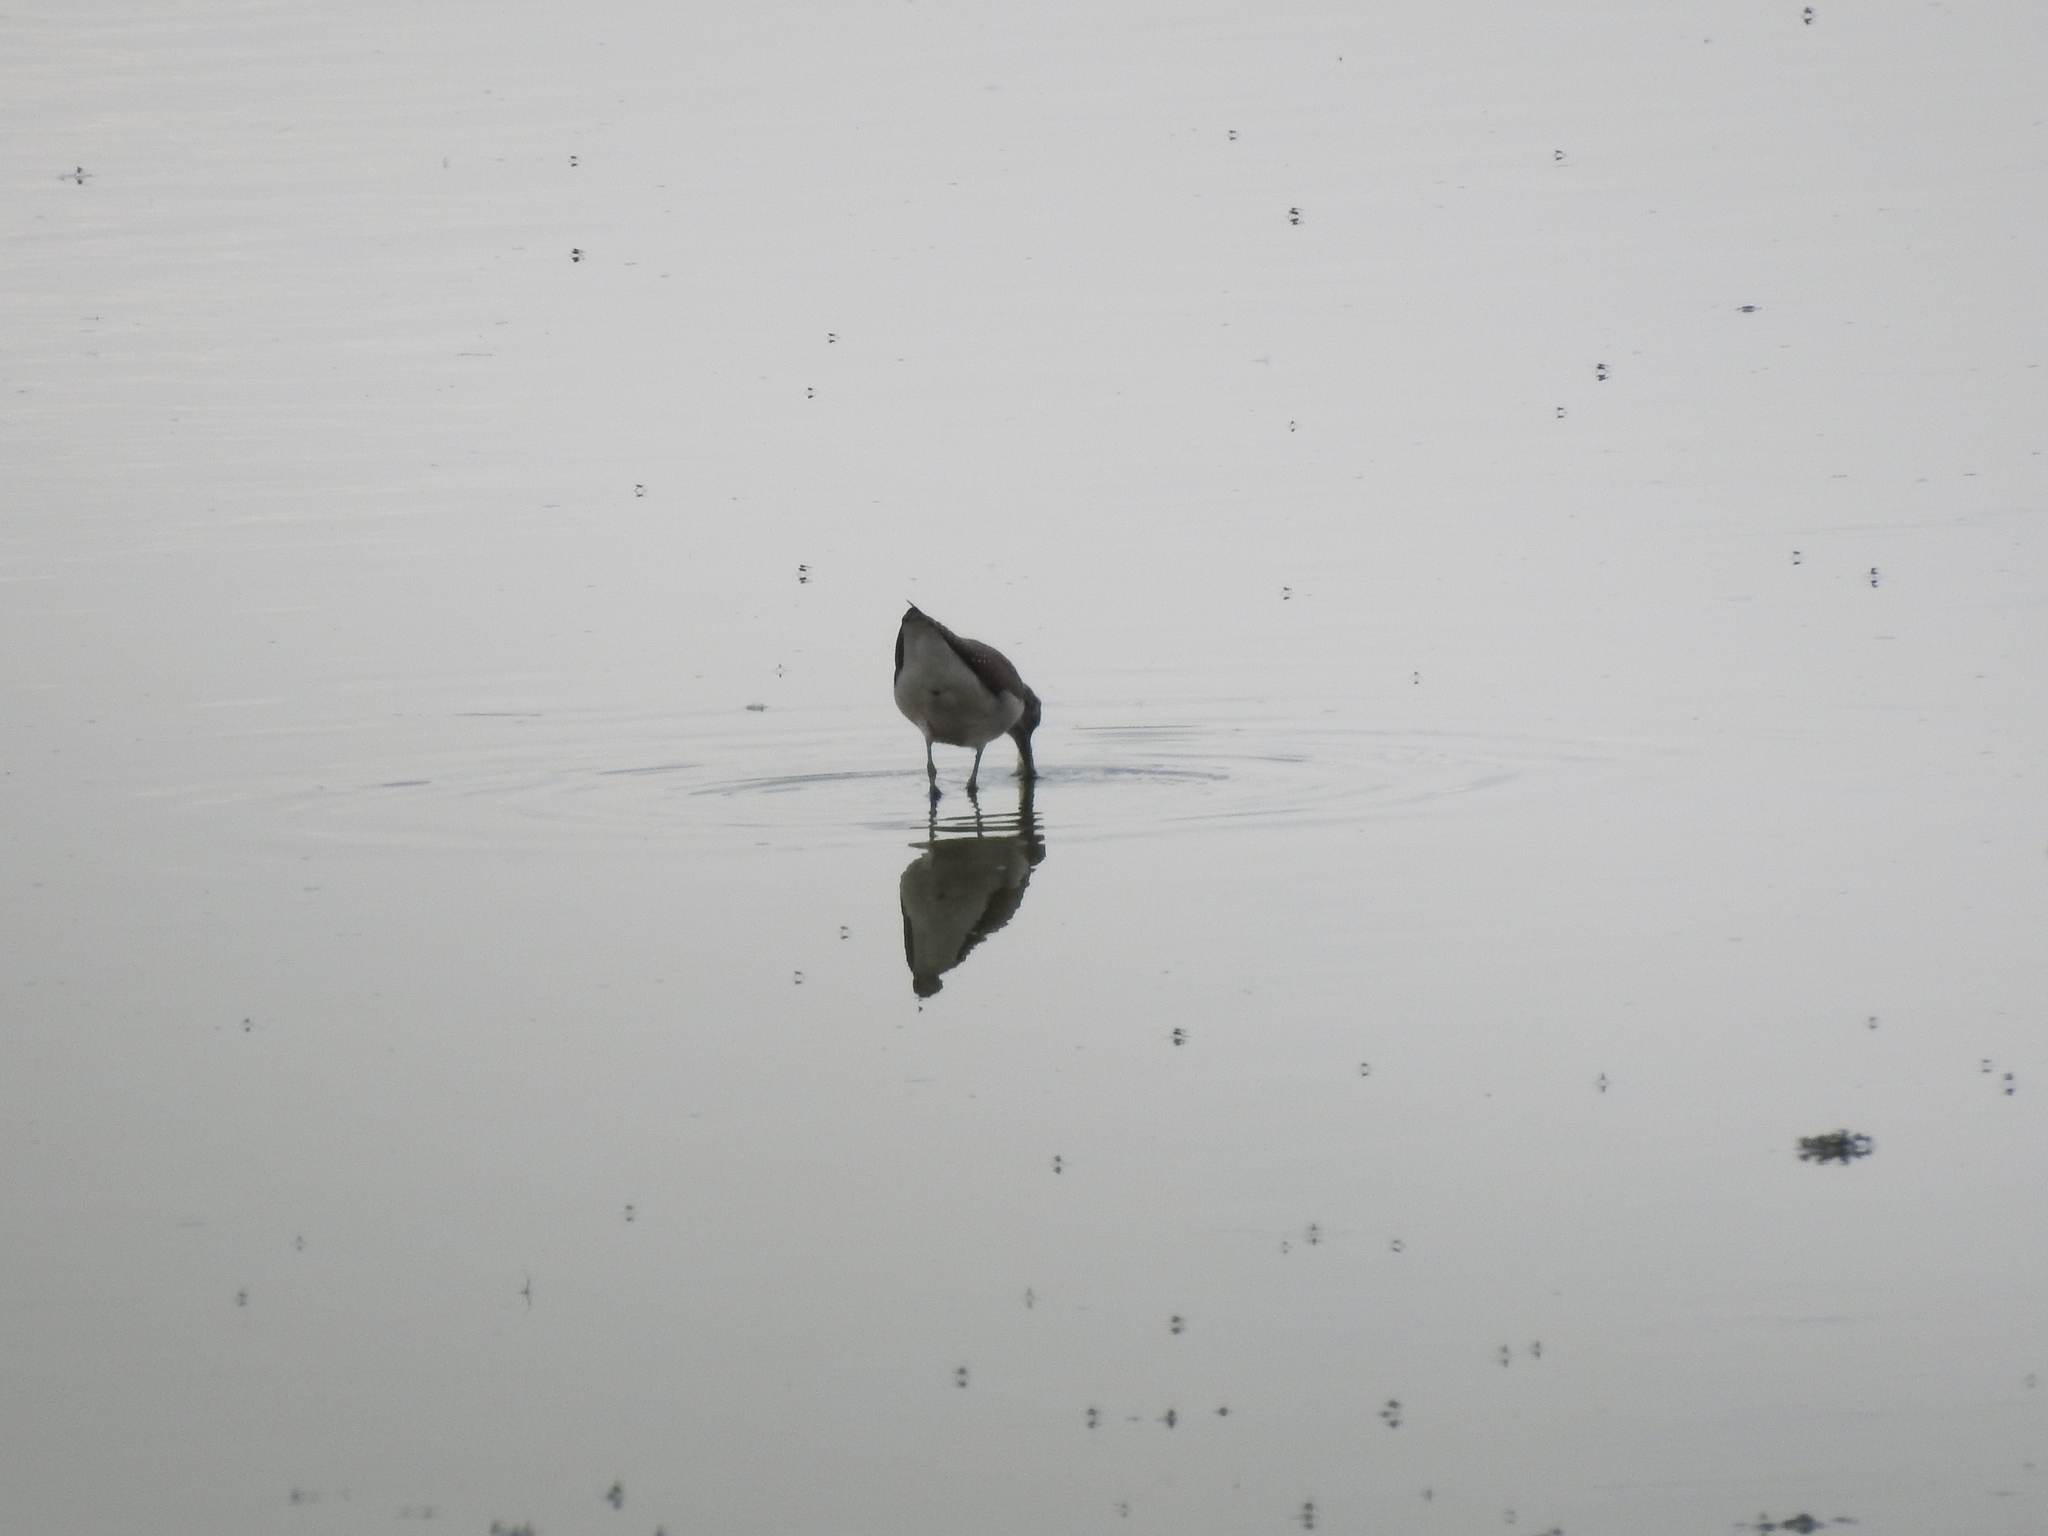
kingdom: Animalia
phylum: Chordata
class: Aves
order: Charadriiformes
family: Scolopacidae
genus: Tringa
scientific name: Tringa ochropus
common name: Green sandpiper
